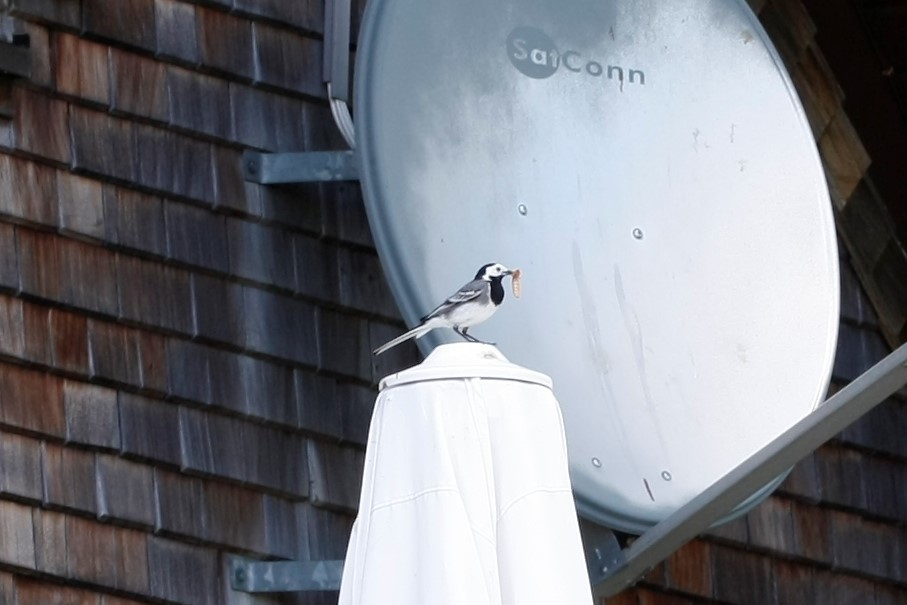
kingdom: Animalia
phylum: Chordata
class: Aves
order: Passeriformes
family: Motacillidae
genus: Motacilla
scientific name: Motacilla alba
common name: White wagtail
